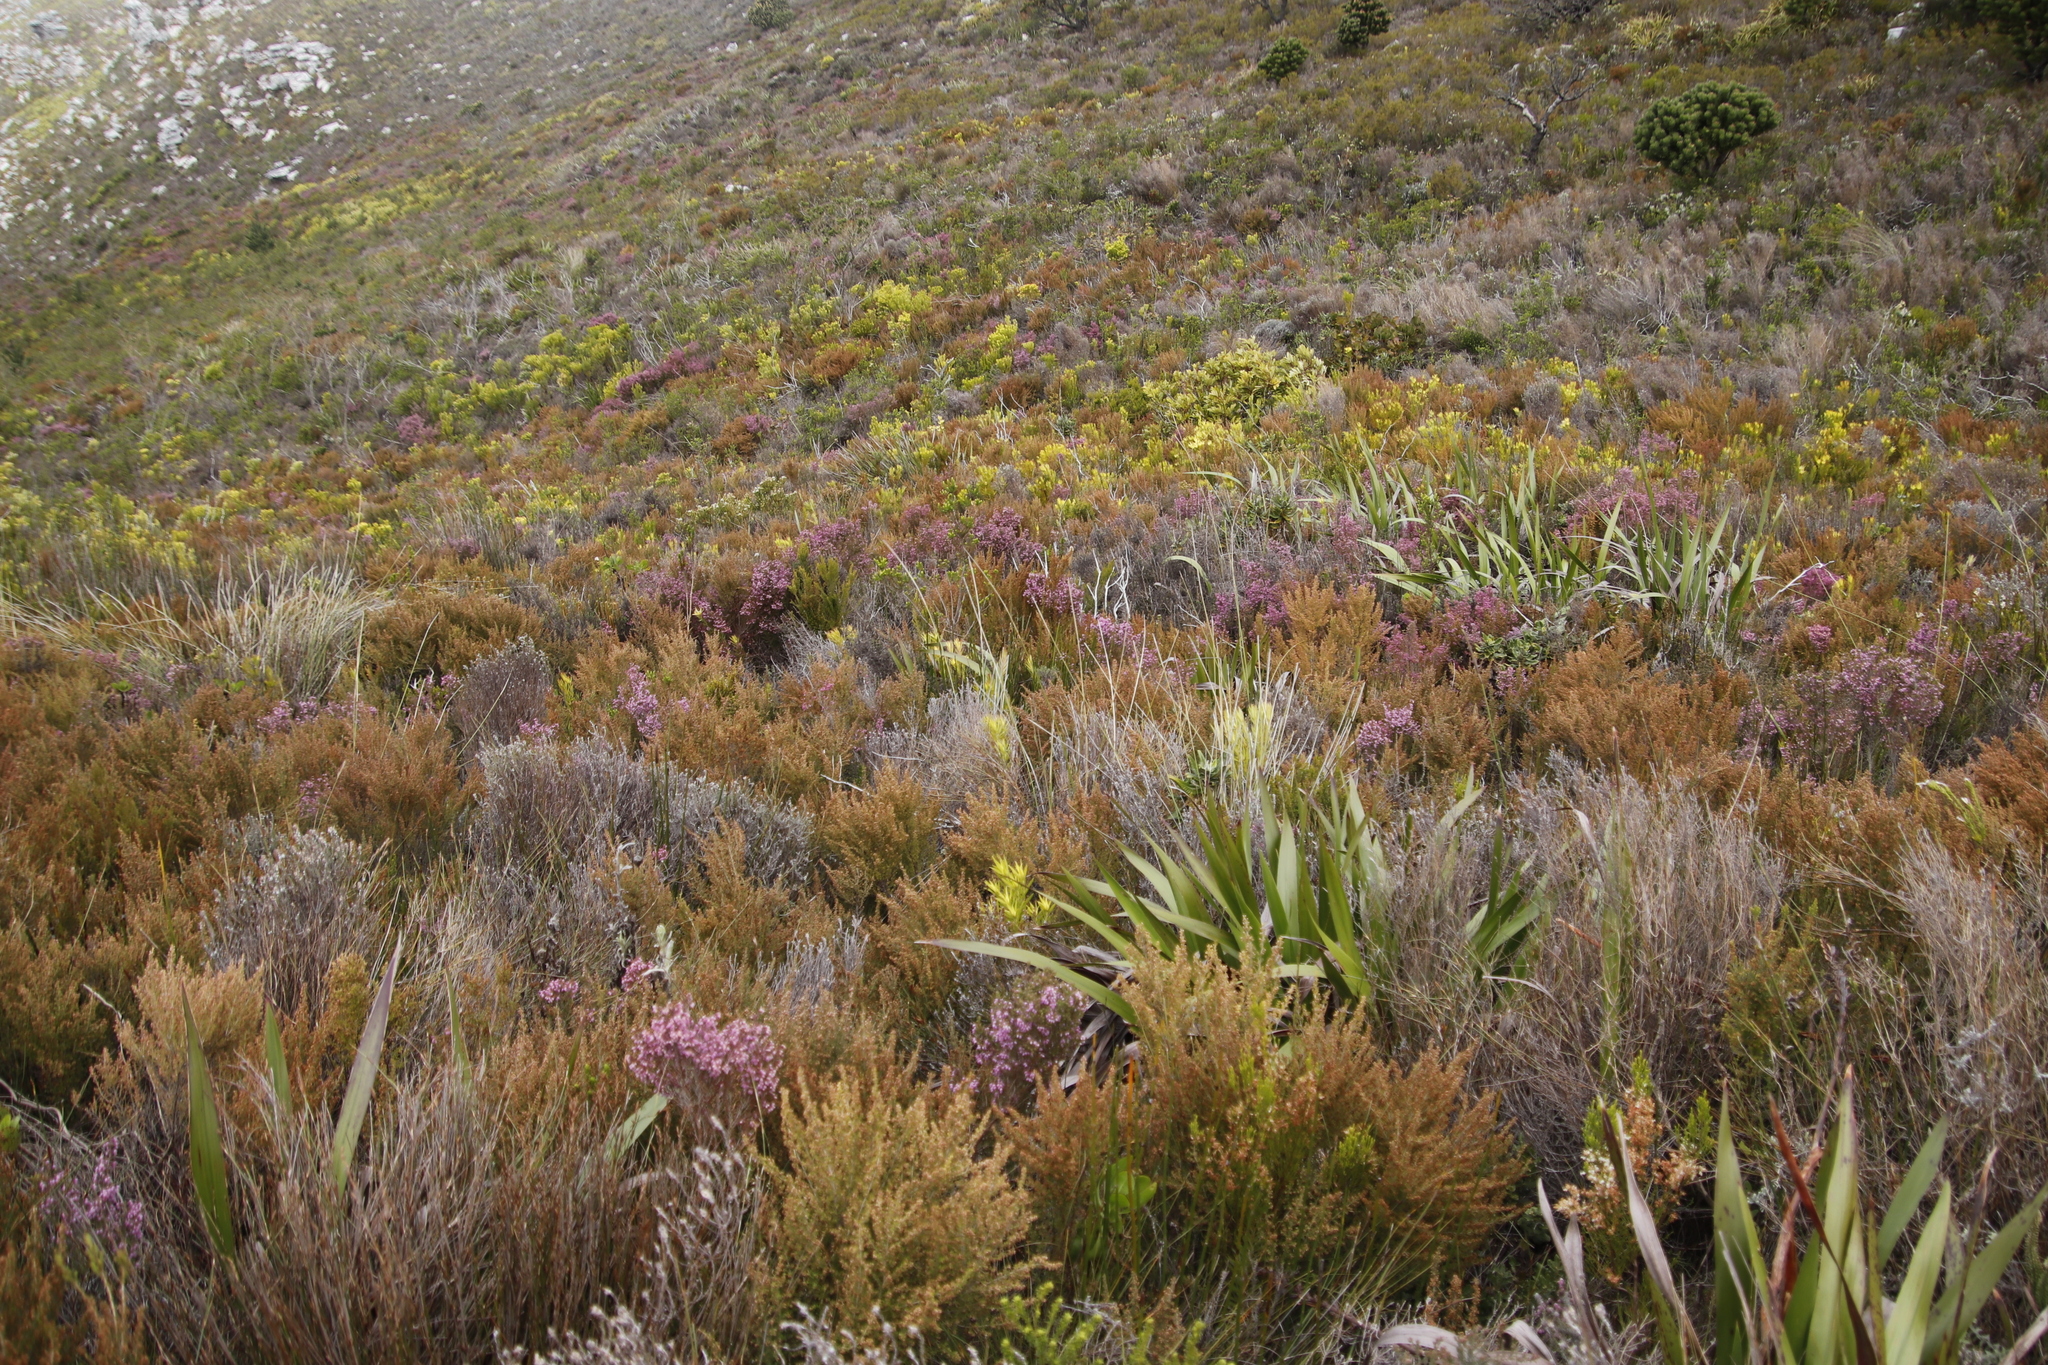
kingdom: Plantae
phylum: Tracheophyta
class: Magnoliopsida
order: Ericales
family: Ericaceae
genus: Erica
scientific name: Erica hirtiflora
